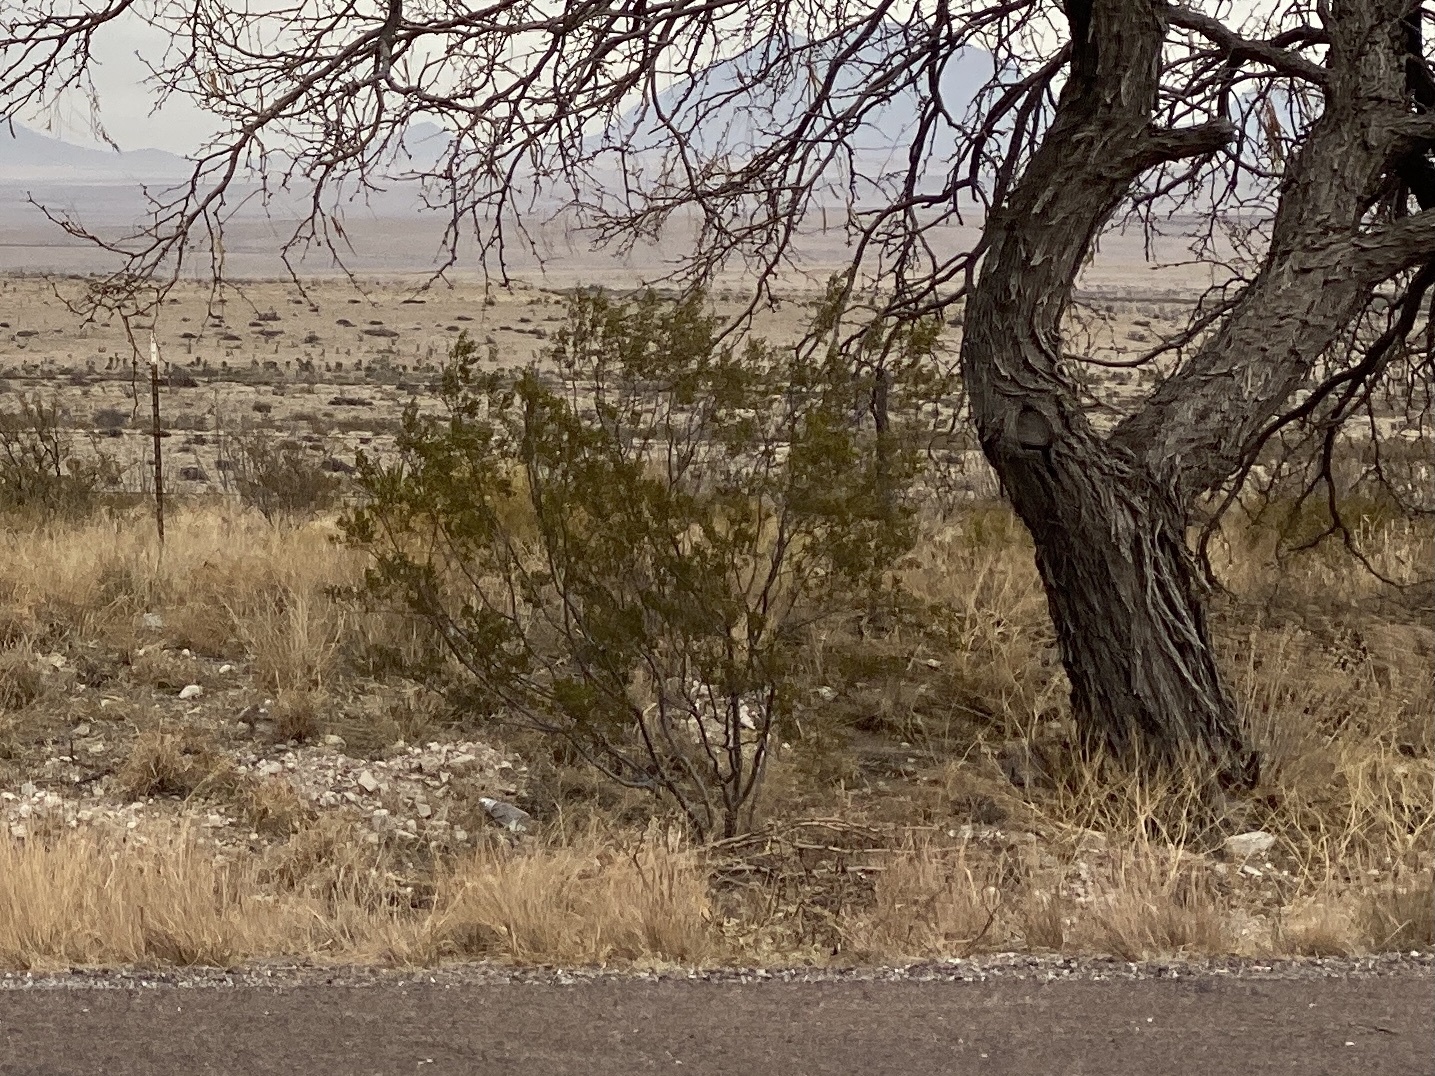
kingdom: Plantae
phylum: Tracheophyta
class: Magnoliopsida
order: Zygophyllales
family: Zygophyllaceae
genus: Larrea
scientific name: Larrea tridentata
